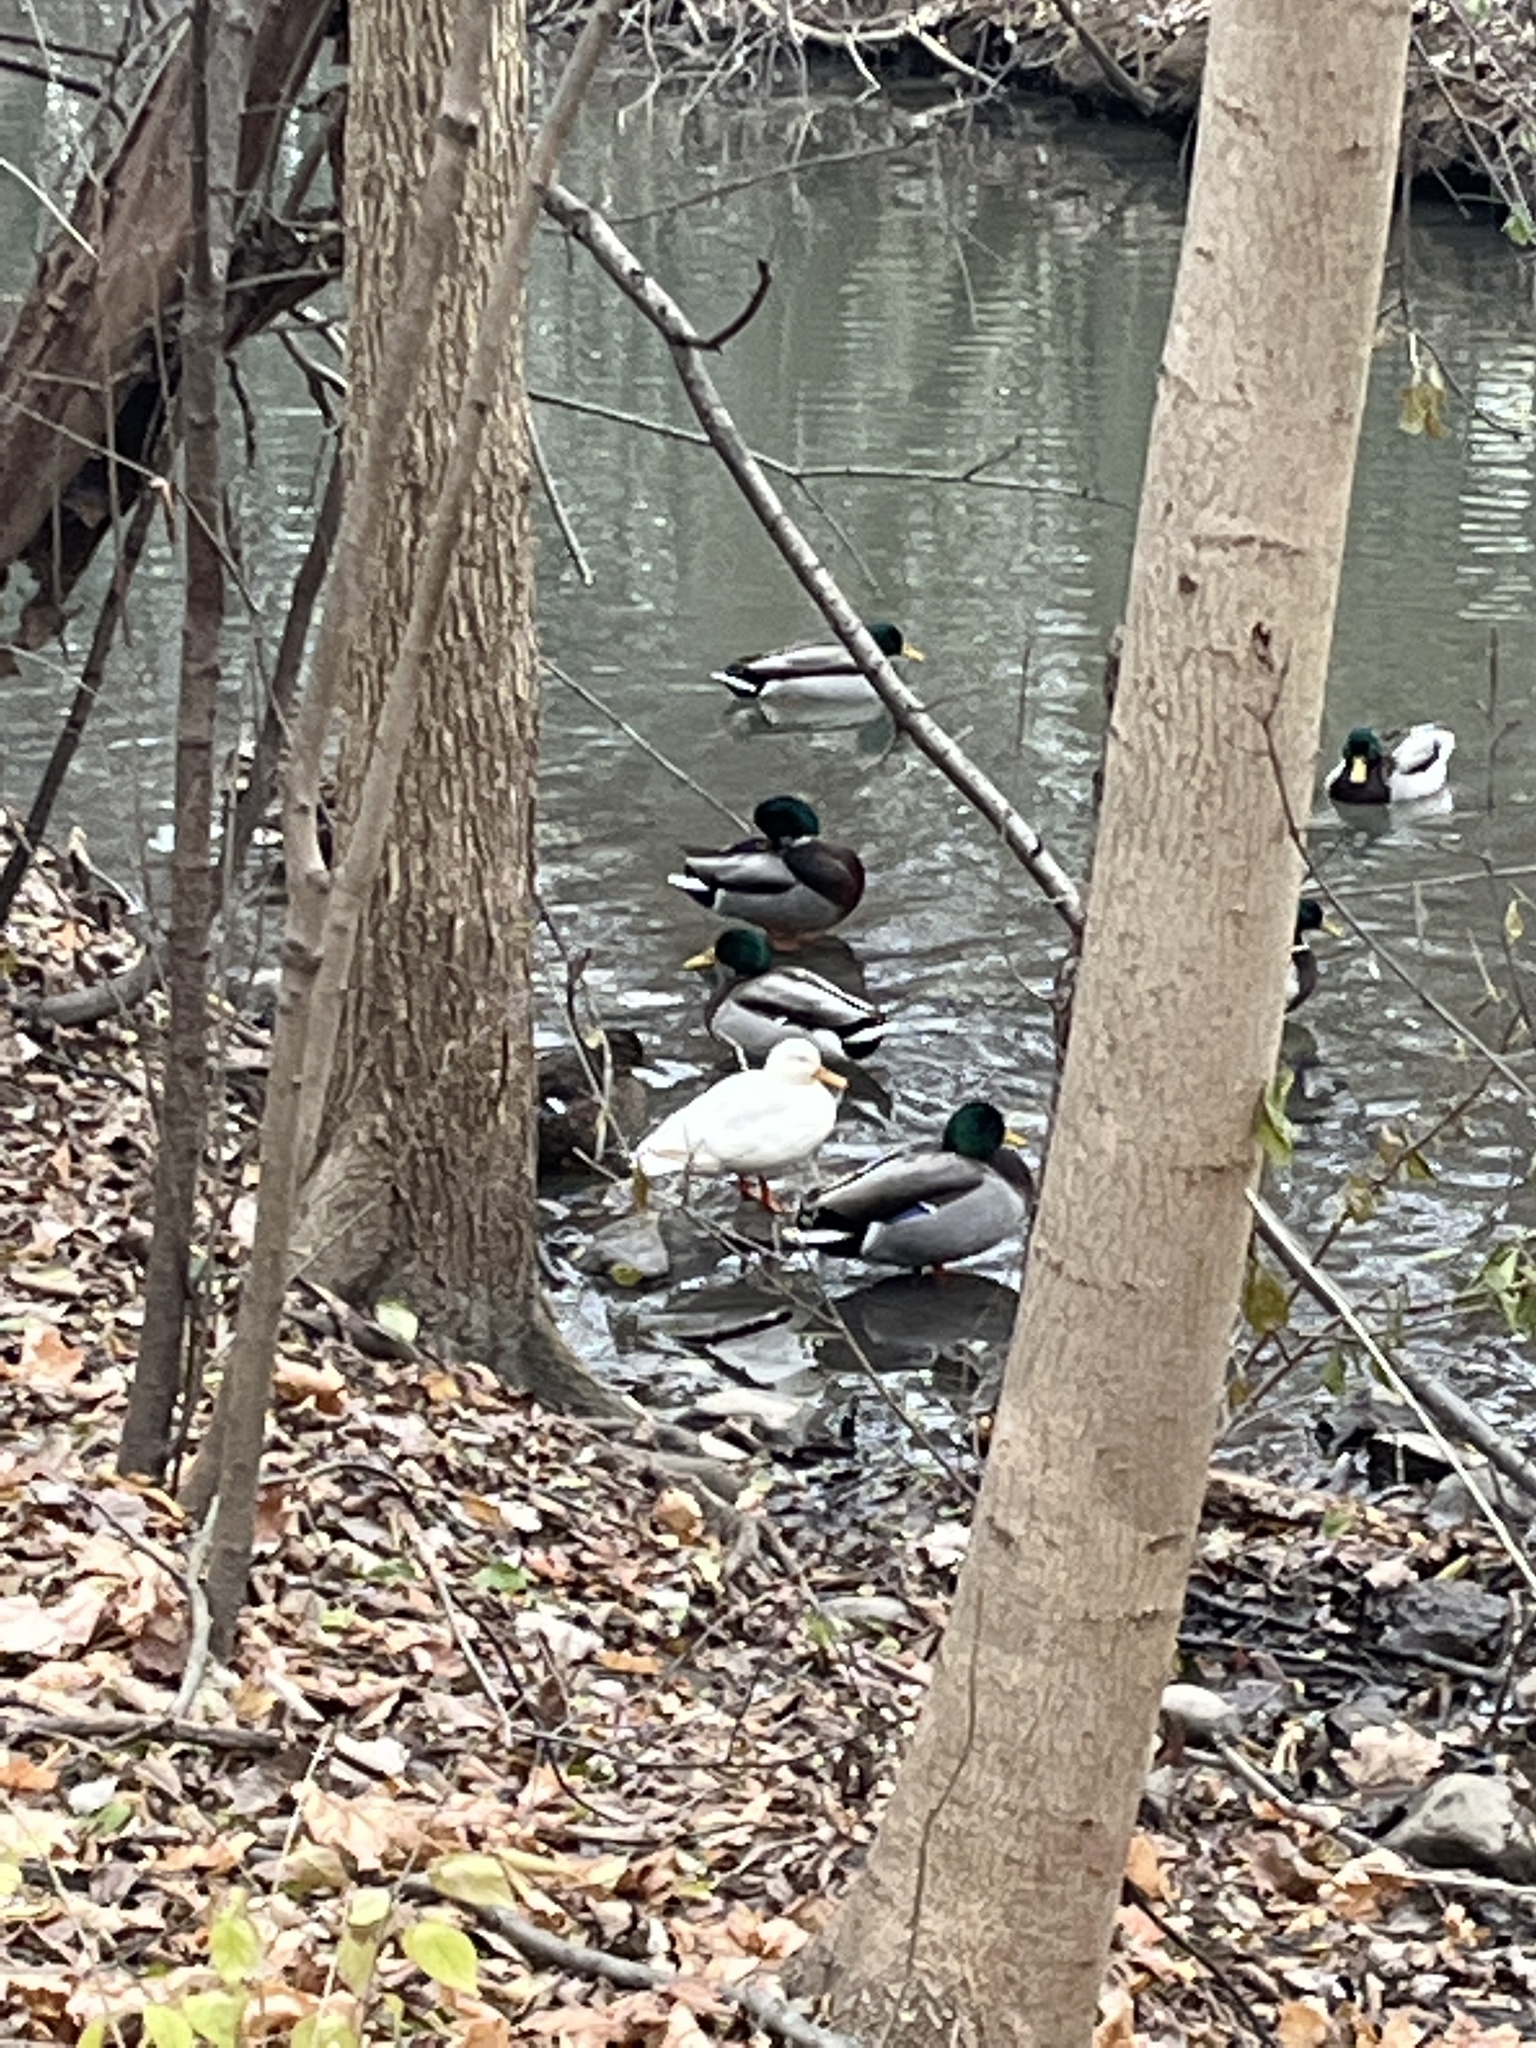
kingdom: Animalia
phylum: Chordata
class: Aves
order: Anseriformes
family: Anatidae
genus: Anas
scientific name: Anas platyrhynchos
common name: Mallard
